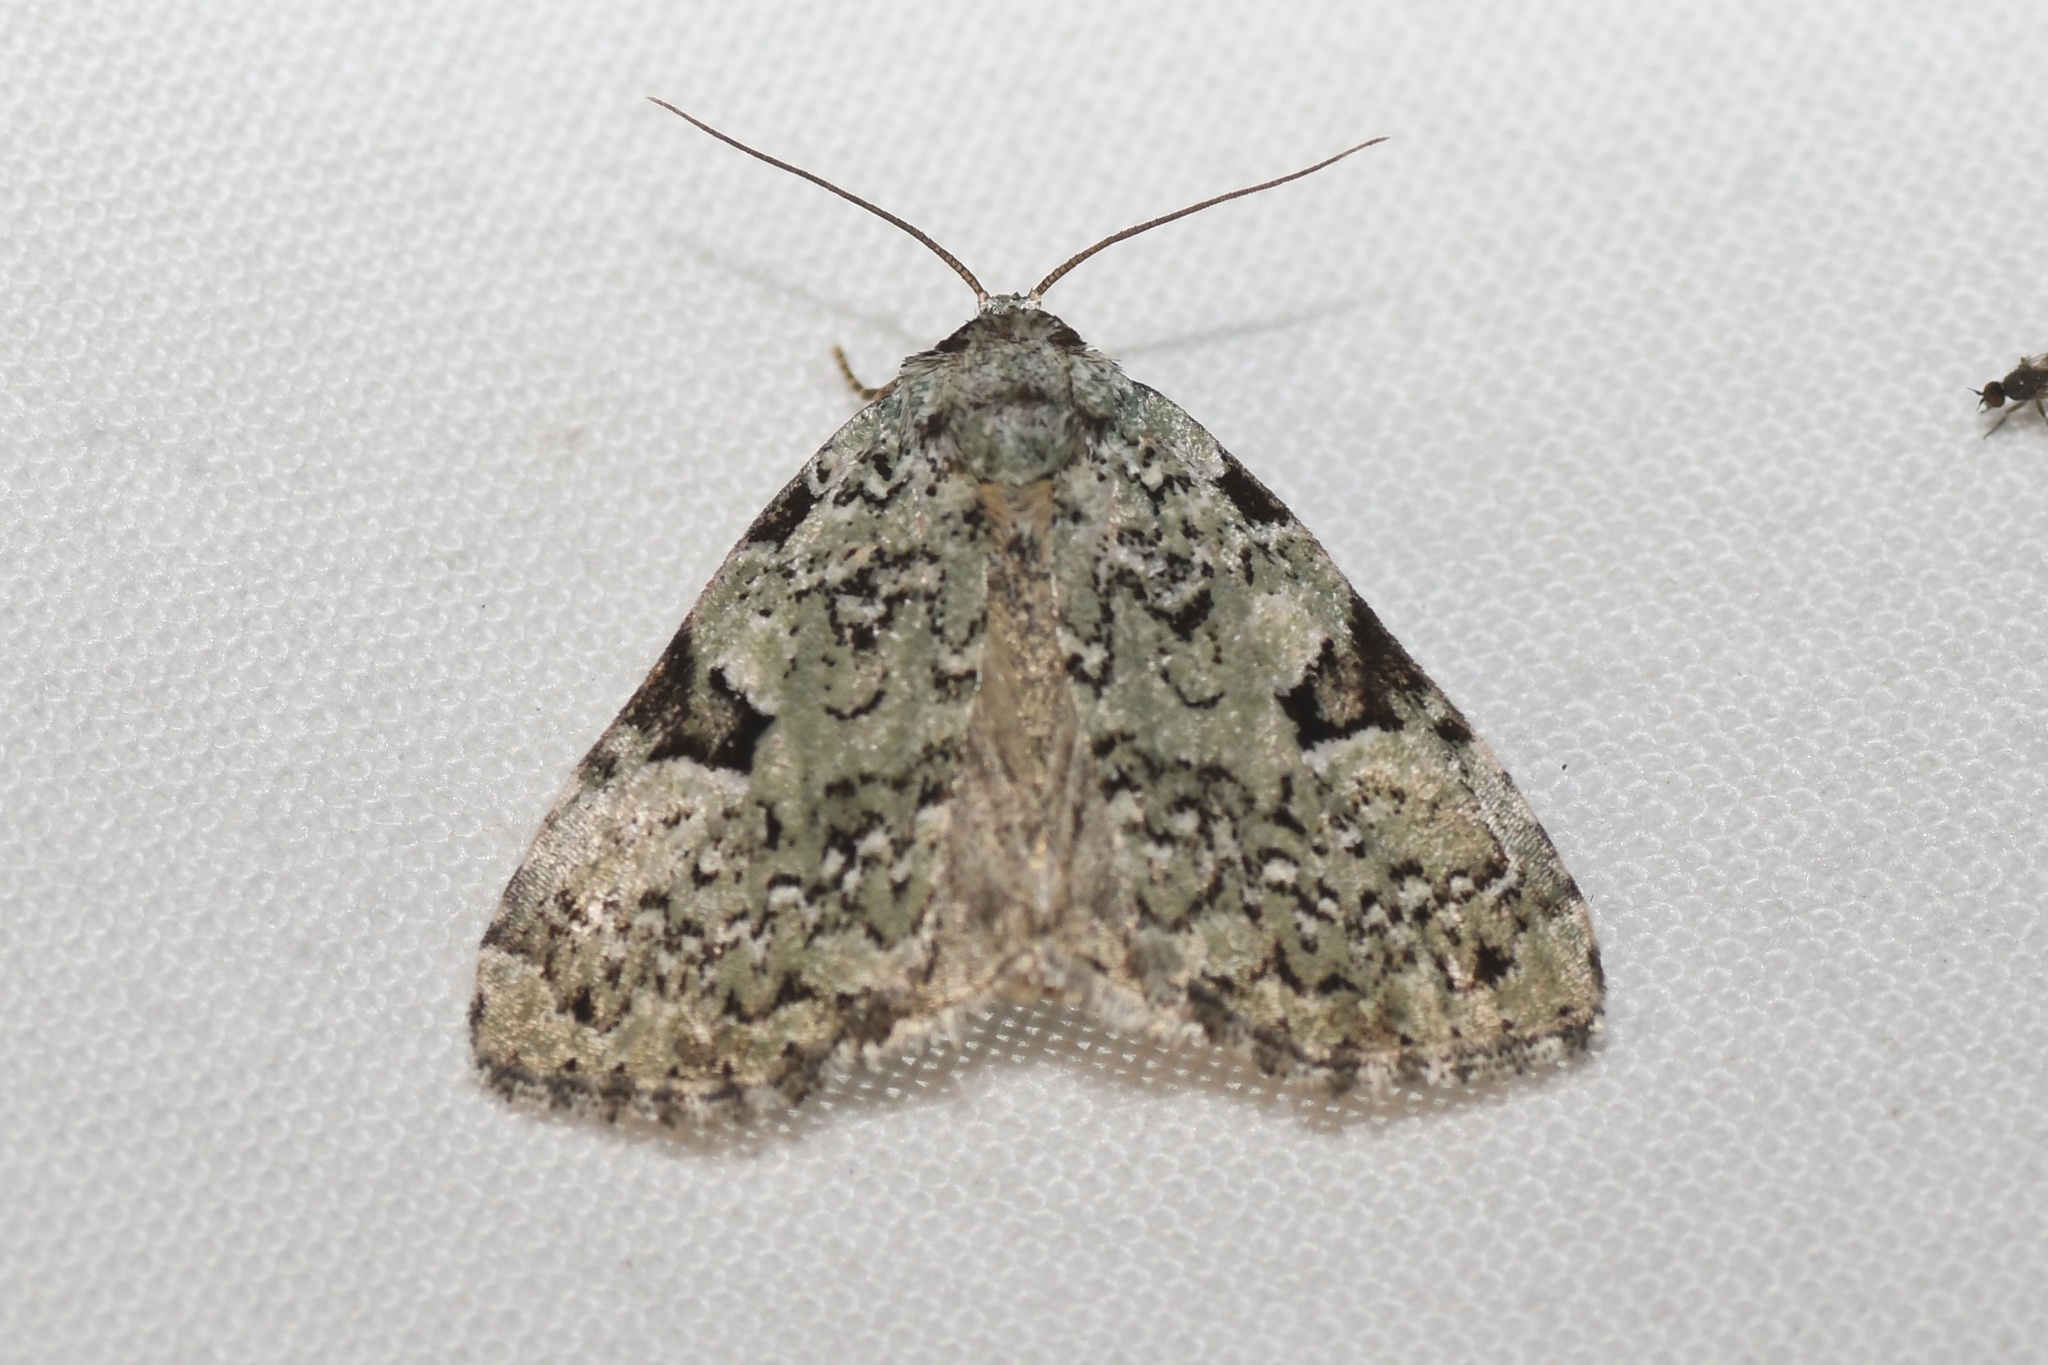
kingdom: Animalia
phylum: Arthropoda
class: Insecta
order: Lepidoptera
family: Noctuidae
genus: Leuconycta
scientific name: Leuconycta diphteroides
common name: Green leuconycta moth
